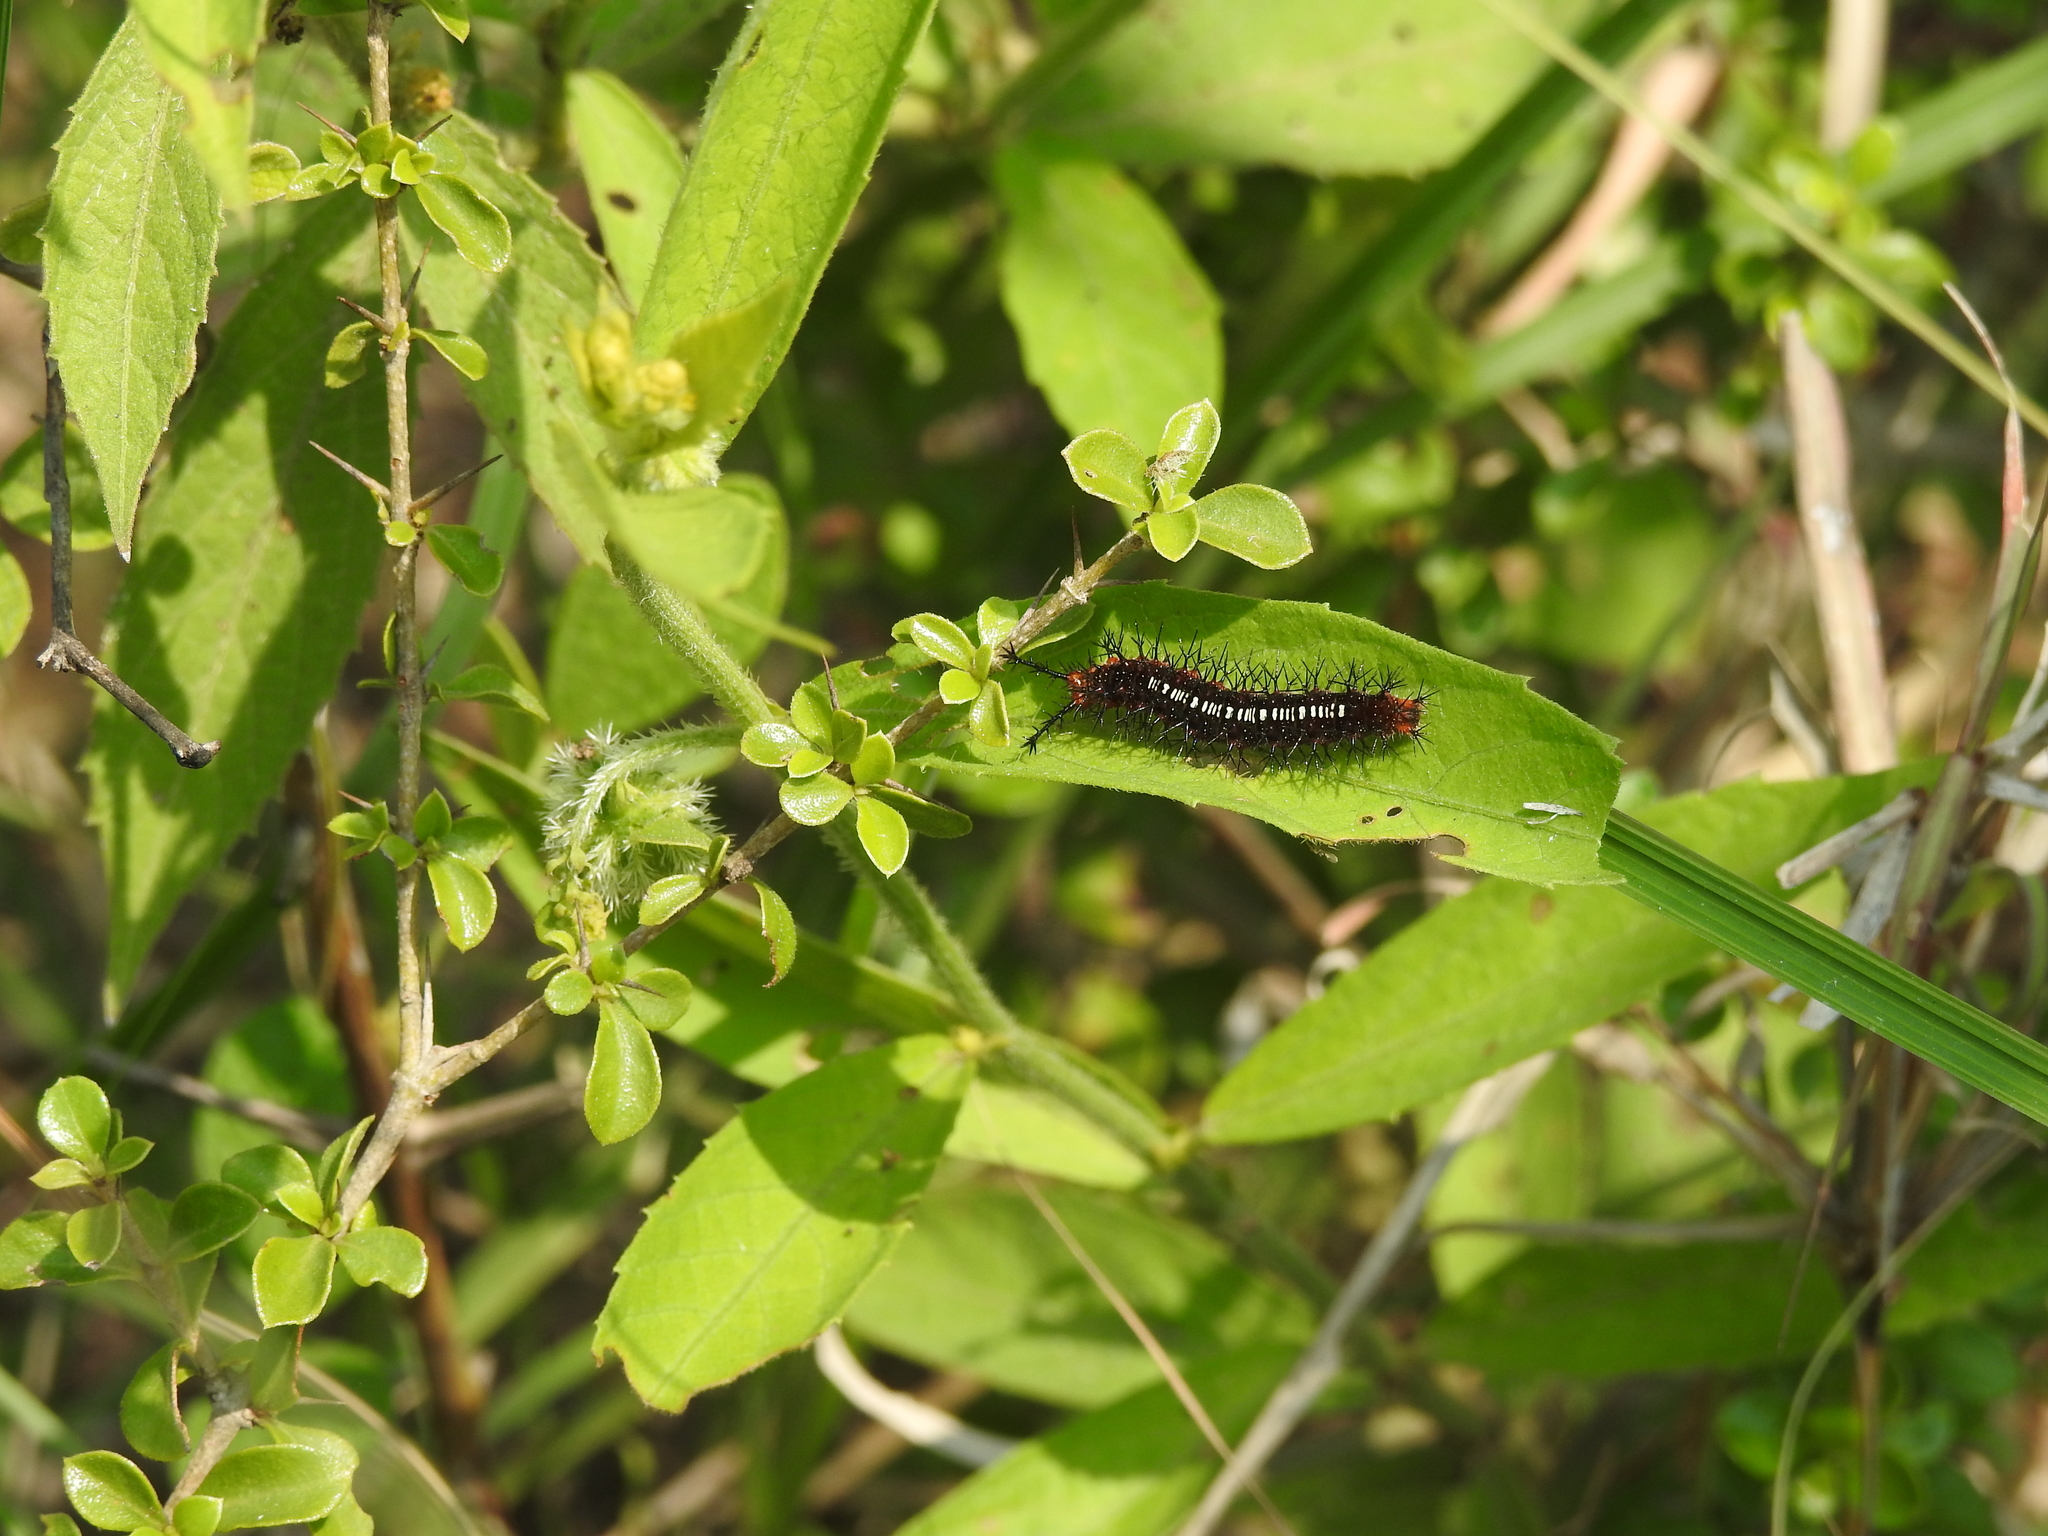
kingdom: Animalia
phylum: Arthropoda
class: Insecta
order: Lepidoptera
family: Nymphalidae
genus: Ariadne
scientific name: Ariadne ariadne
